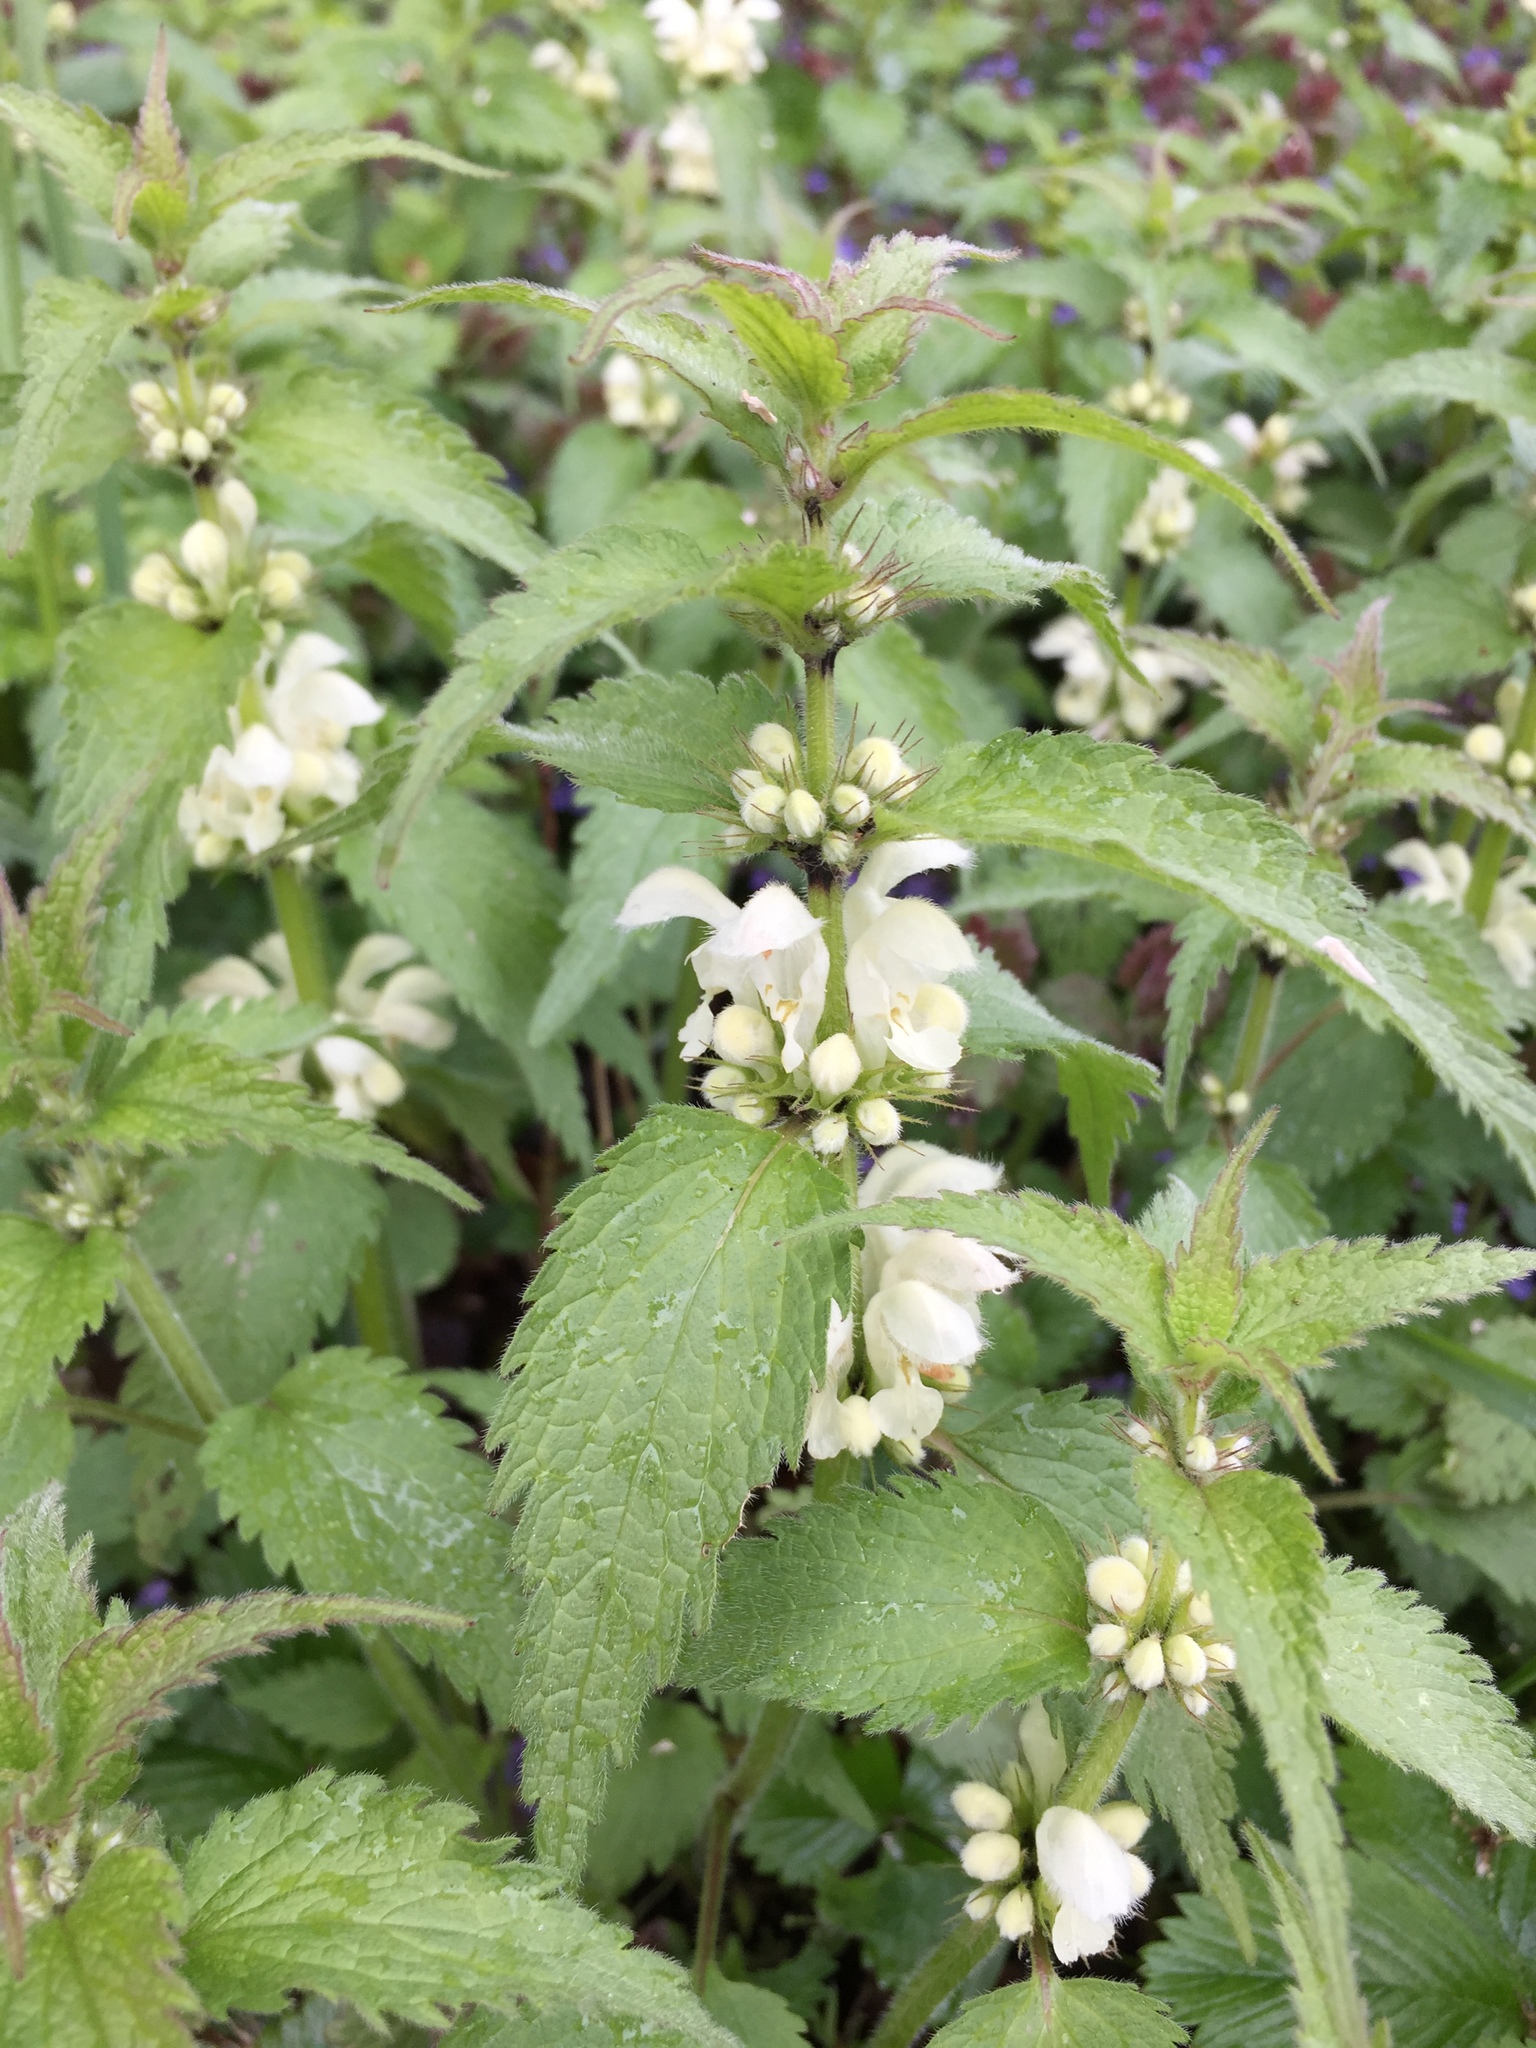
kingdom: Plantae
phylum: Tracheophyta
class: Magnoliopsida
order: Lamiales
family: Lamiaceae
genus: Lamium
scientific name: Lamium album
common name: White dead-nettle
